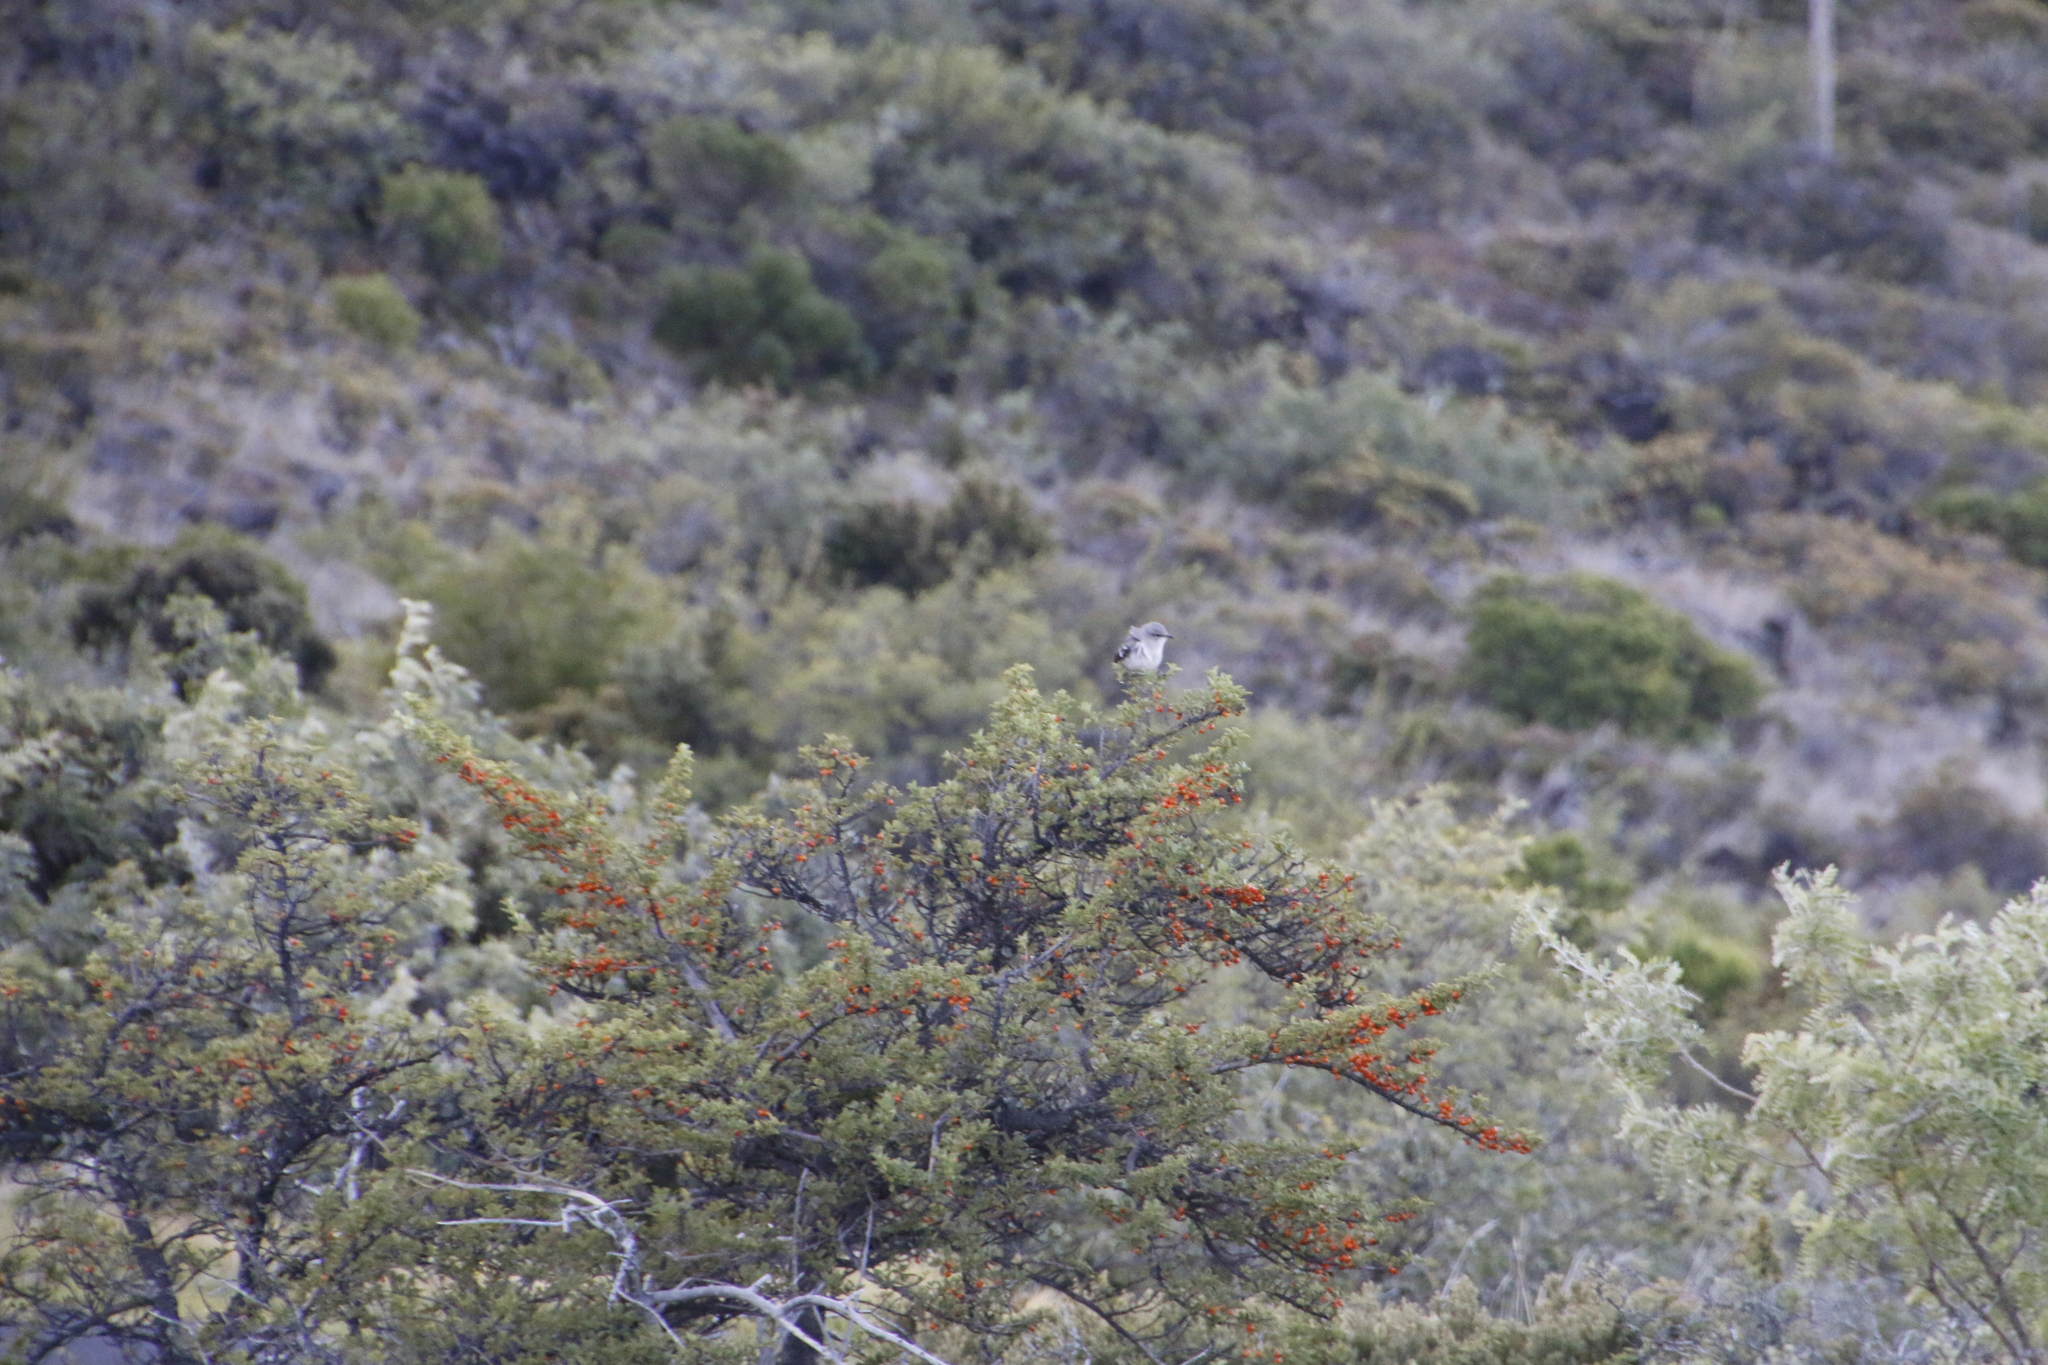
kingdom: Animalia
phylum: Chordata
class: Aves
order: Passeriformes
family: Mimidae
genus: Mimus
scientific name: Mimus polyglottos
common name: Northern mockingbird
